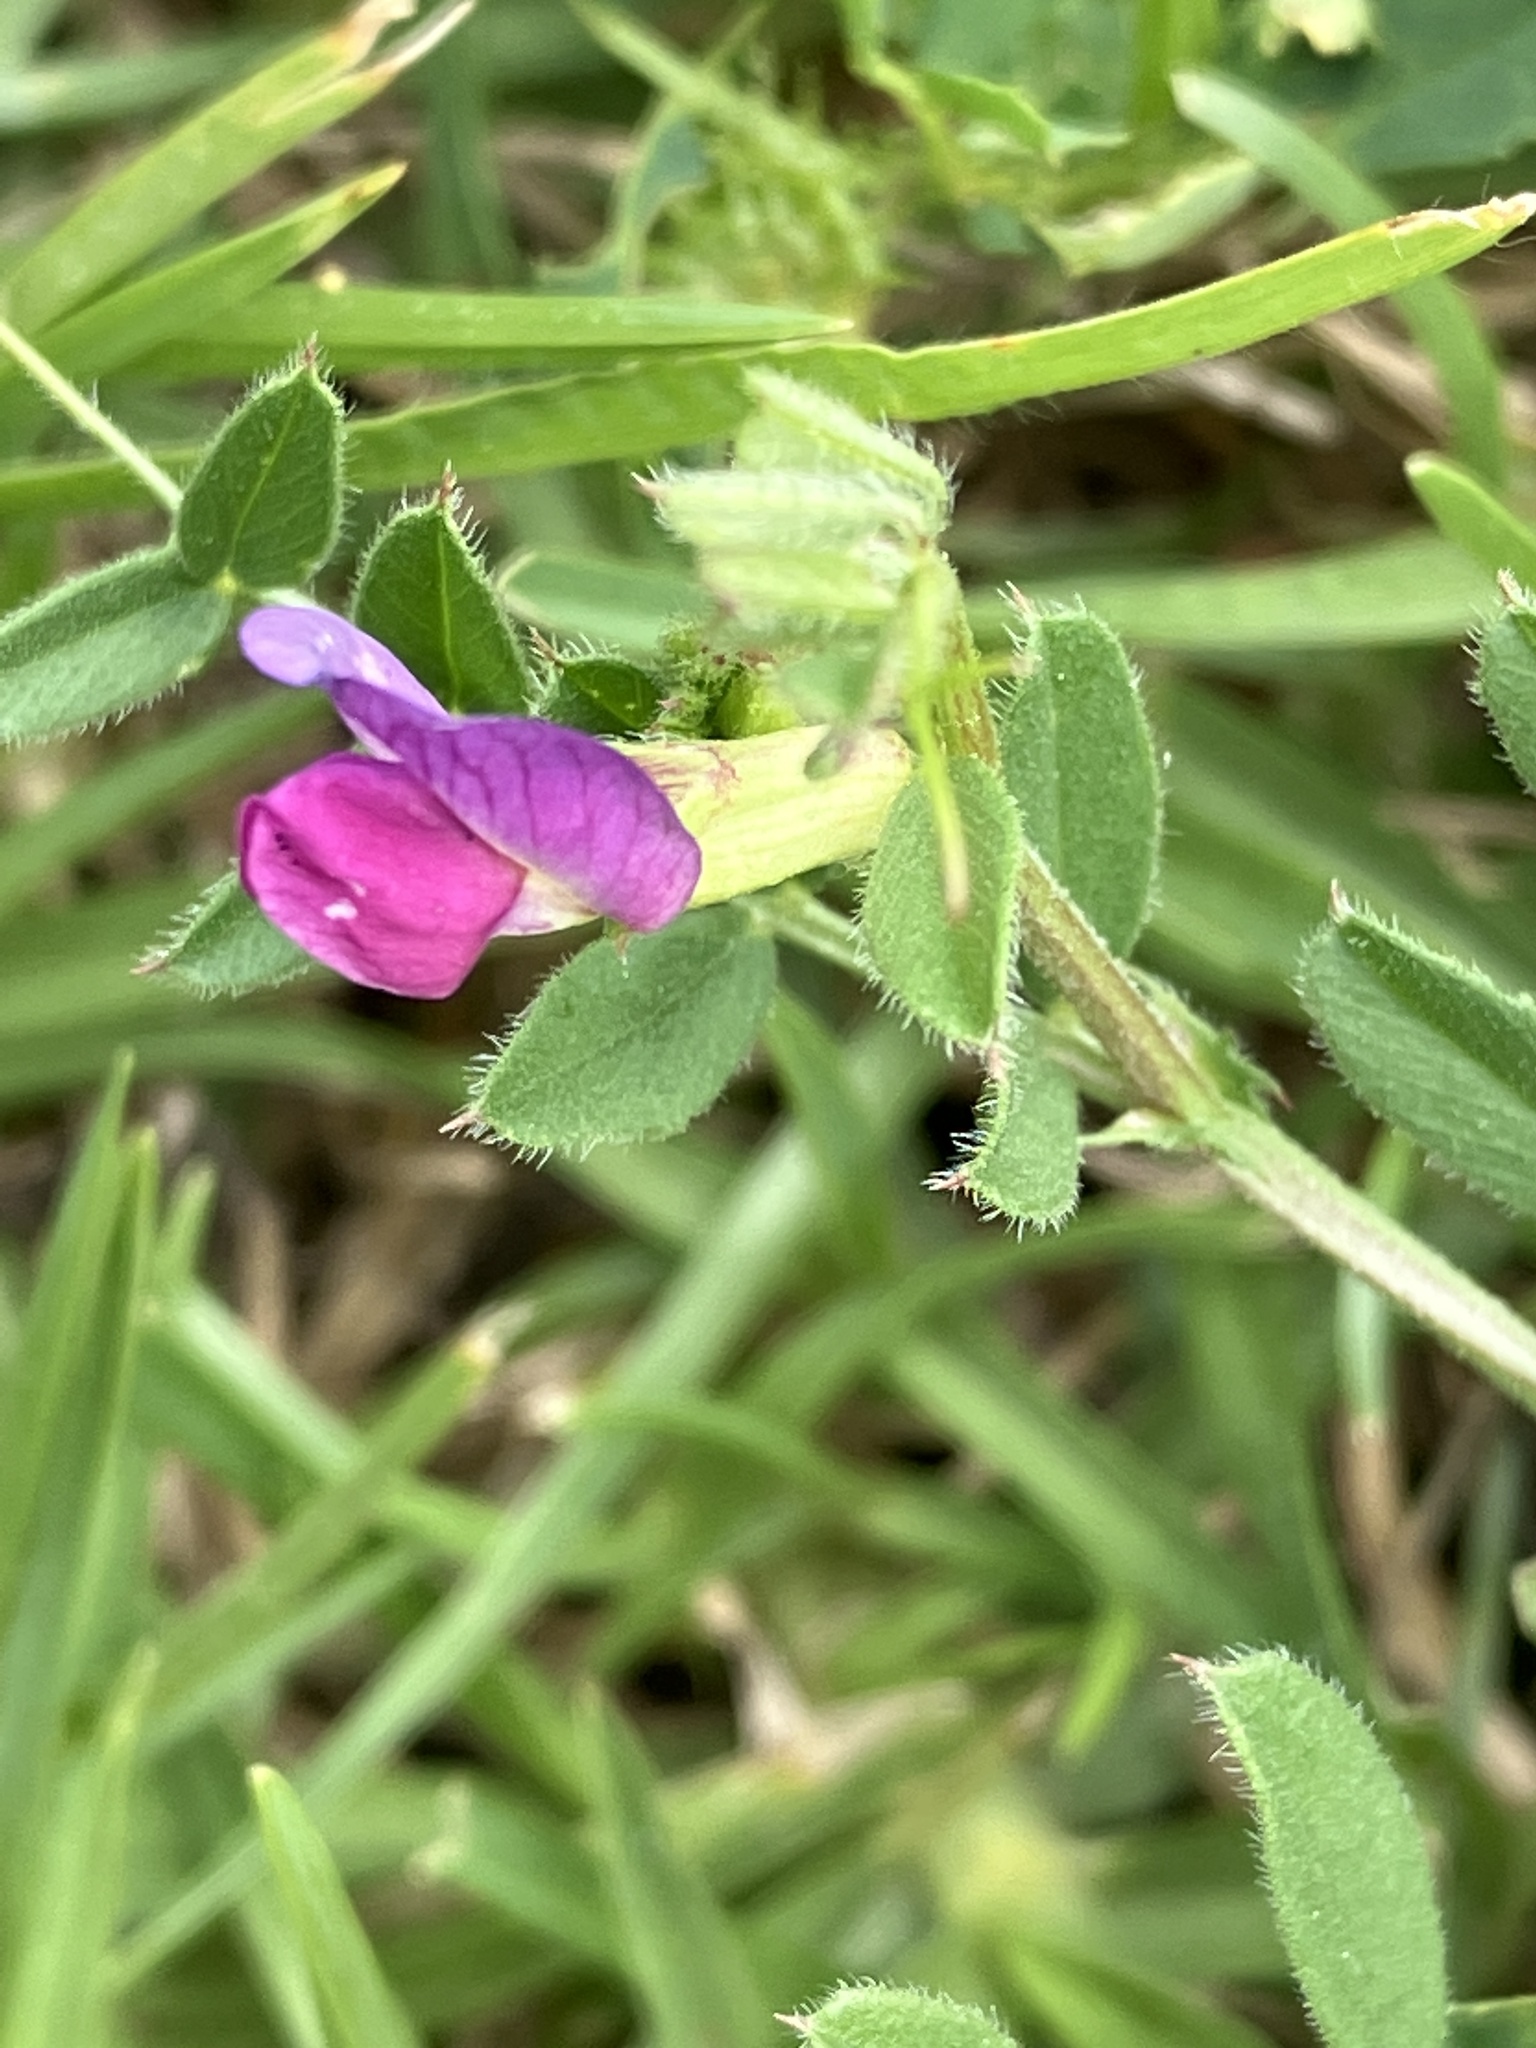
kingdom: Plantae
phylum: Tracheophyta
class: Magnoliopsida
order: Fabales
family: Fabaceae
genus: Vicia
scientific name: Vicia sativa
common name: Garden vetch
